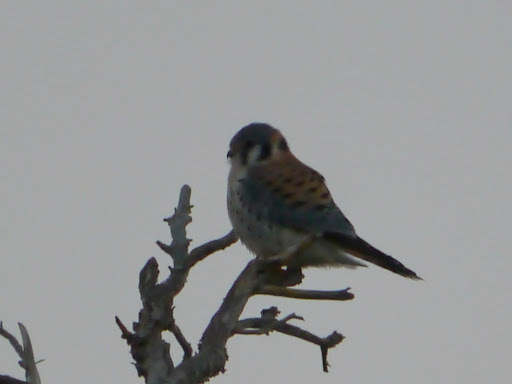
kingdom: Animalia
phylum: Chordata
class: Aves
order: Falconiformes
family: Falconidae
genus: Falco
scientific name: Falco sparverius
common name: American kestrel
